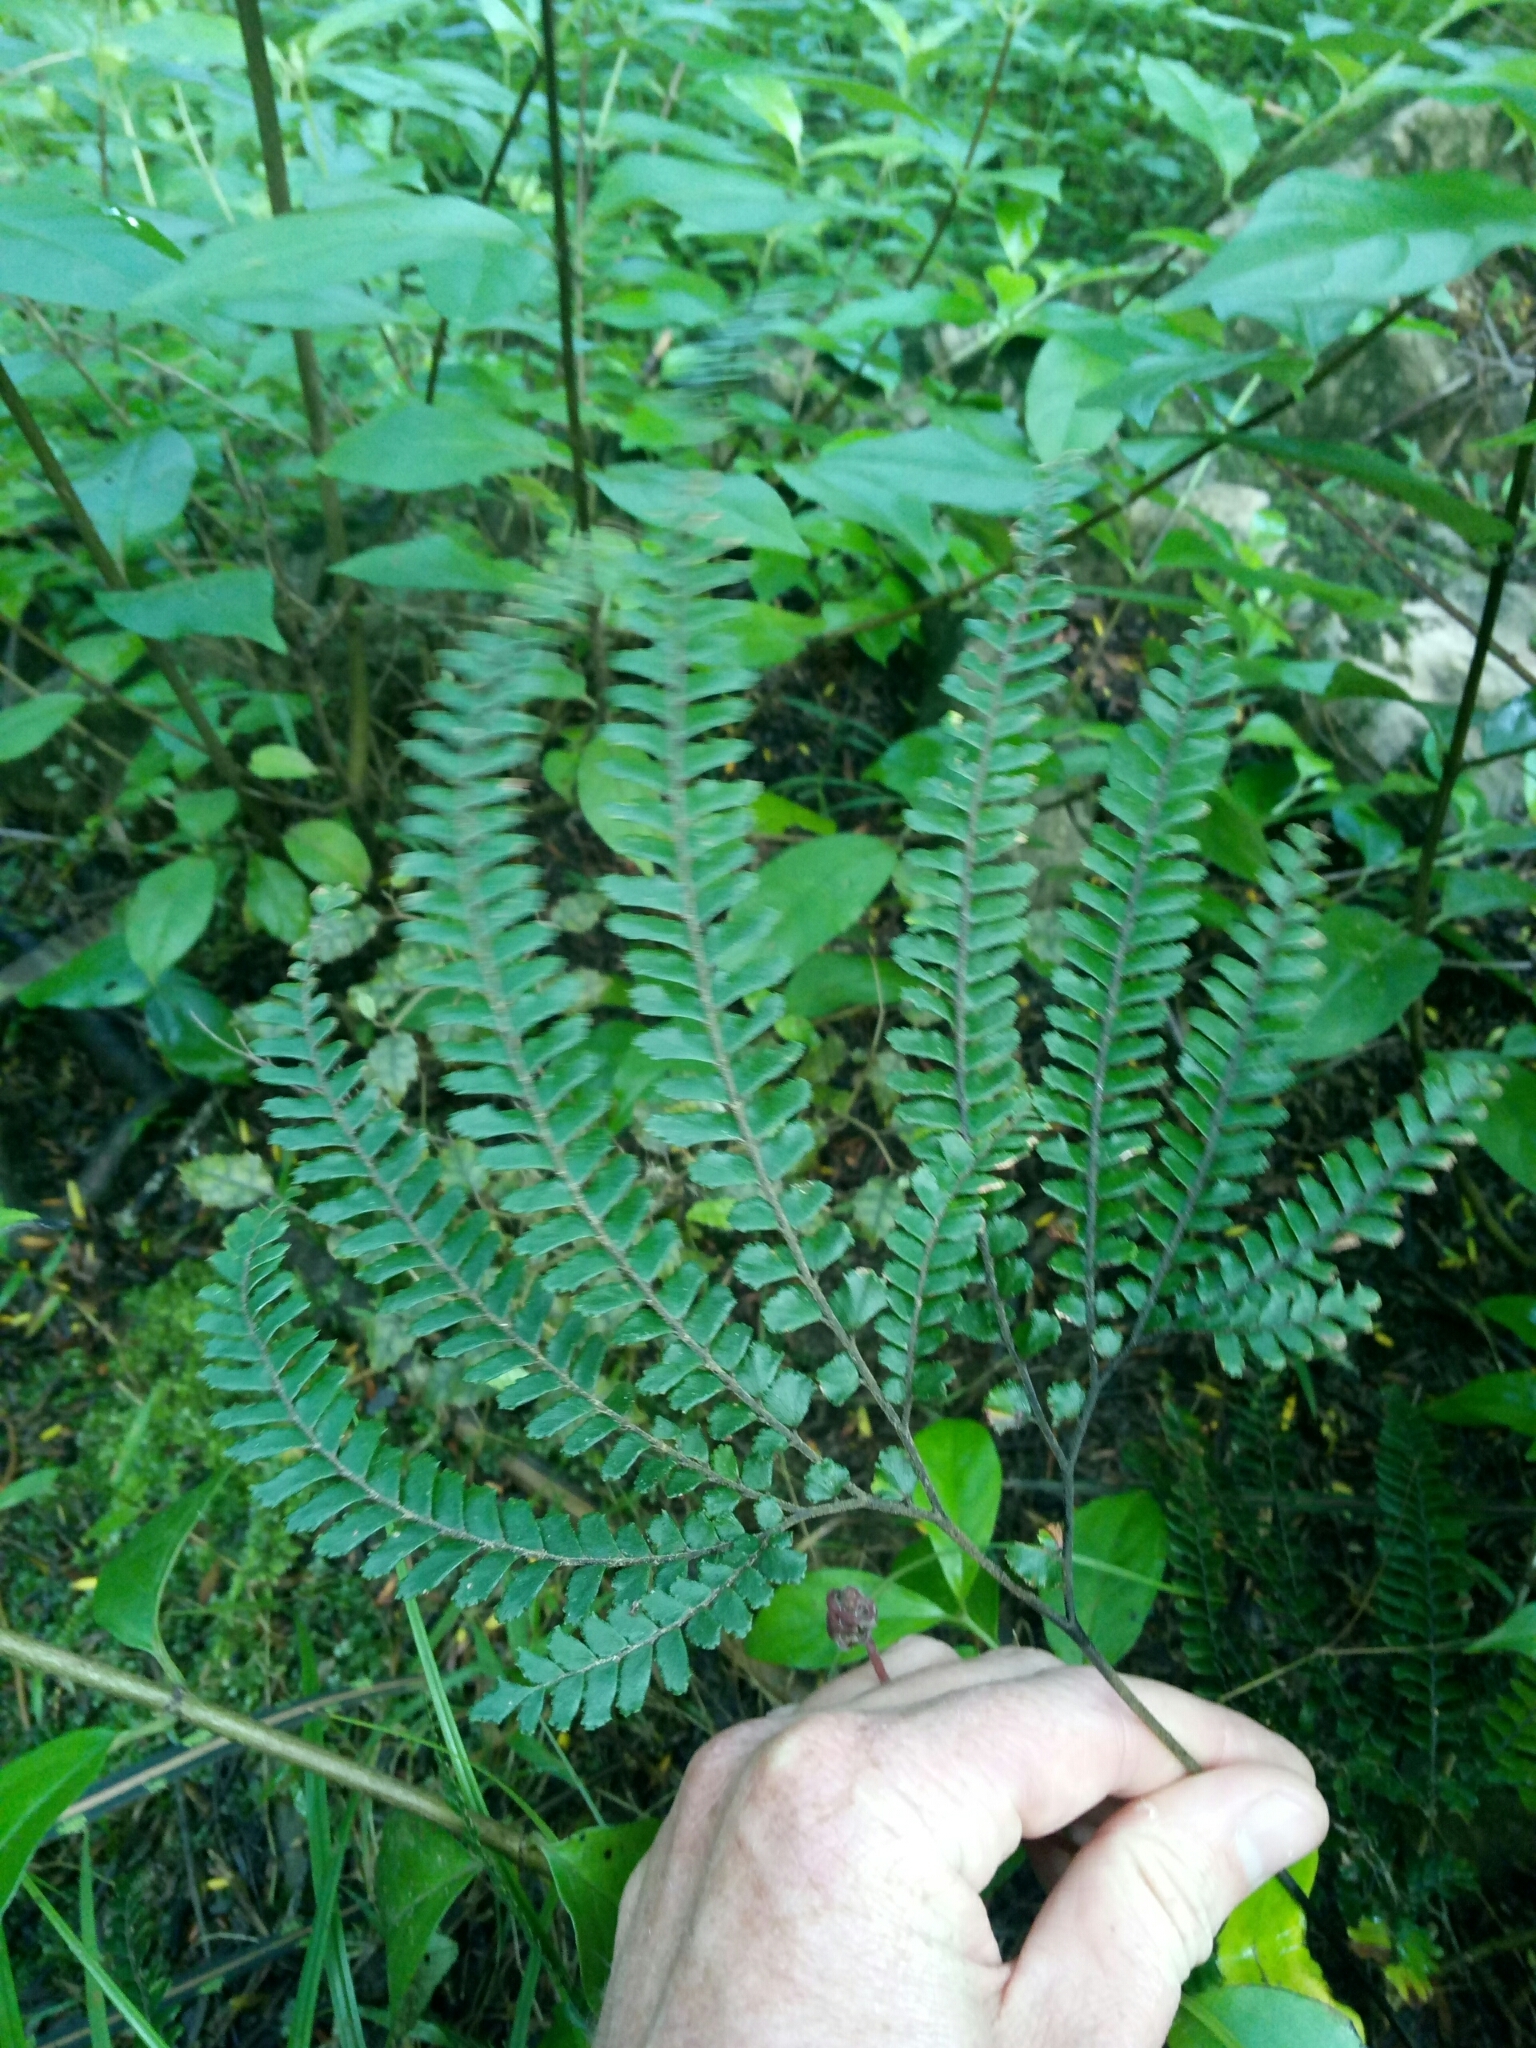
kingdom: Plantae
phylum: Tracheophyta
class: Polypodiopsida
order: Polypodiales
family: Pteridaceae
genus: Adiantum
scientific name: Adiantum hispidulum
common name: Rough maidenhair
